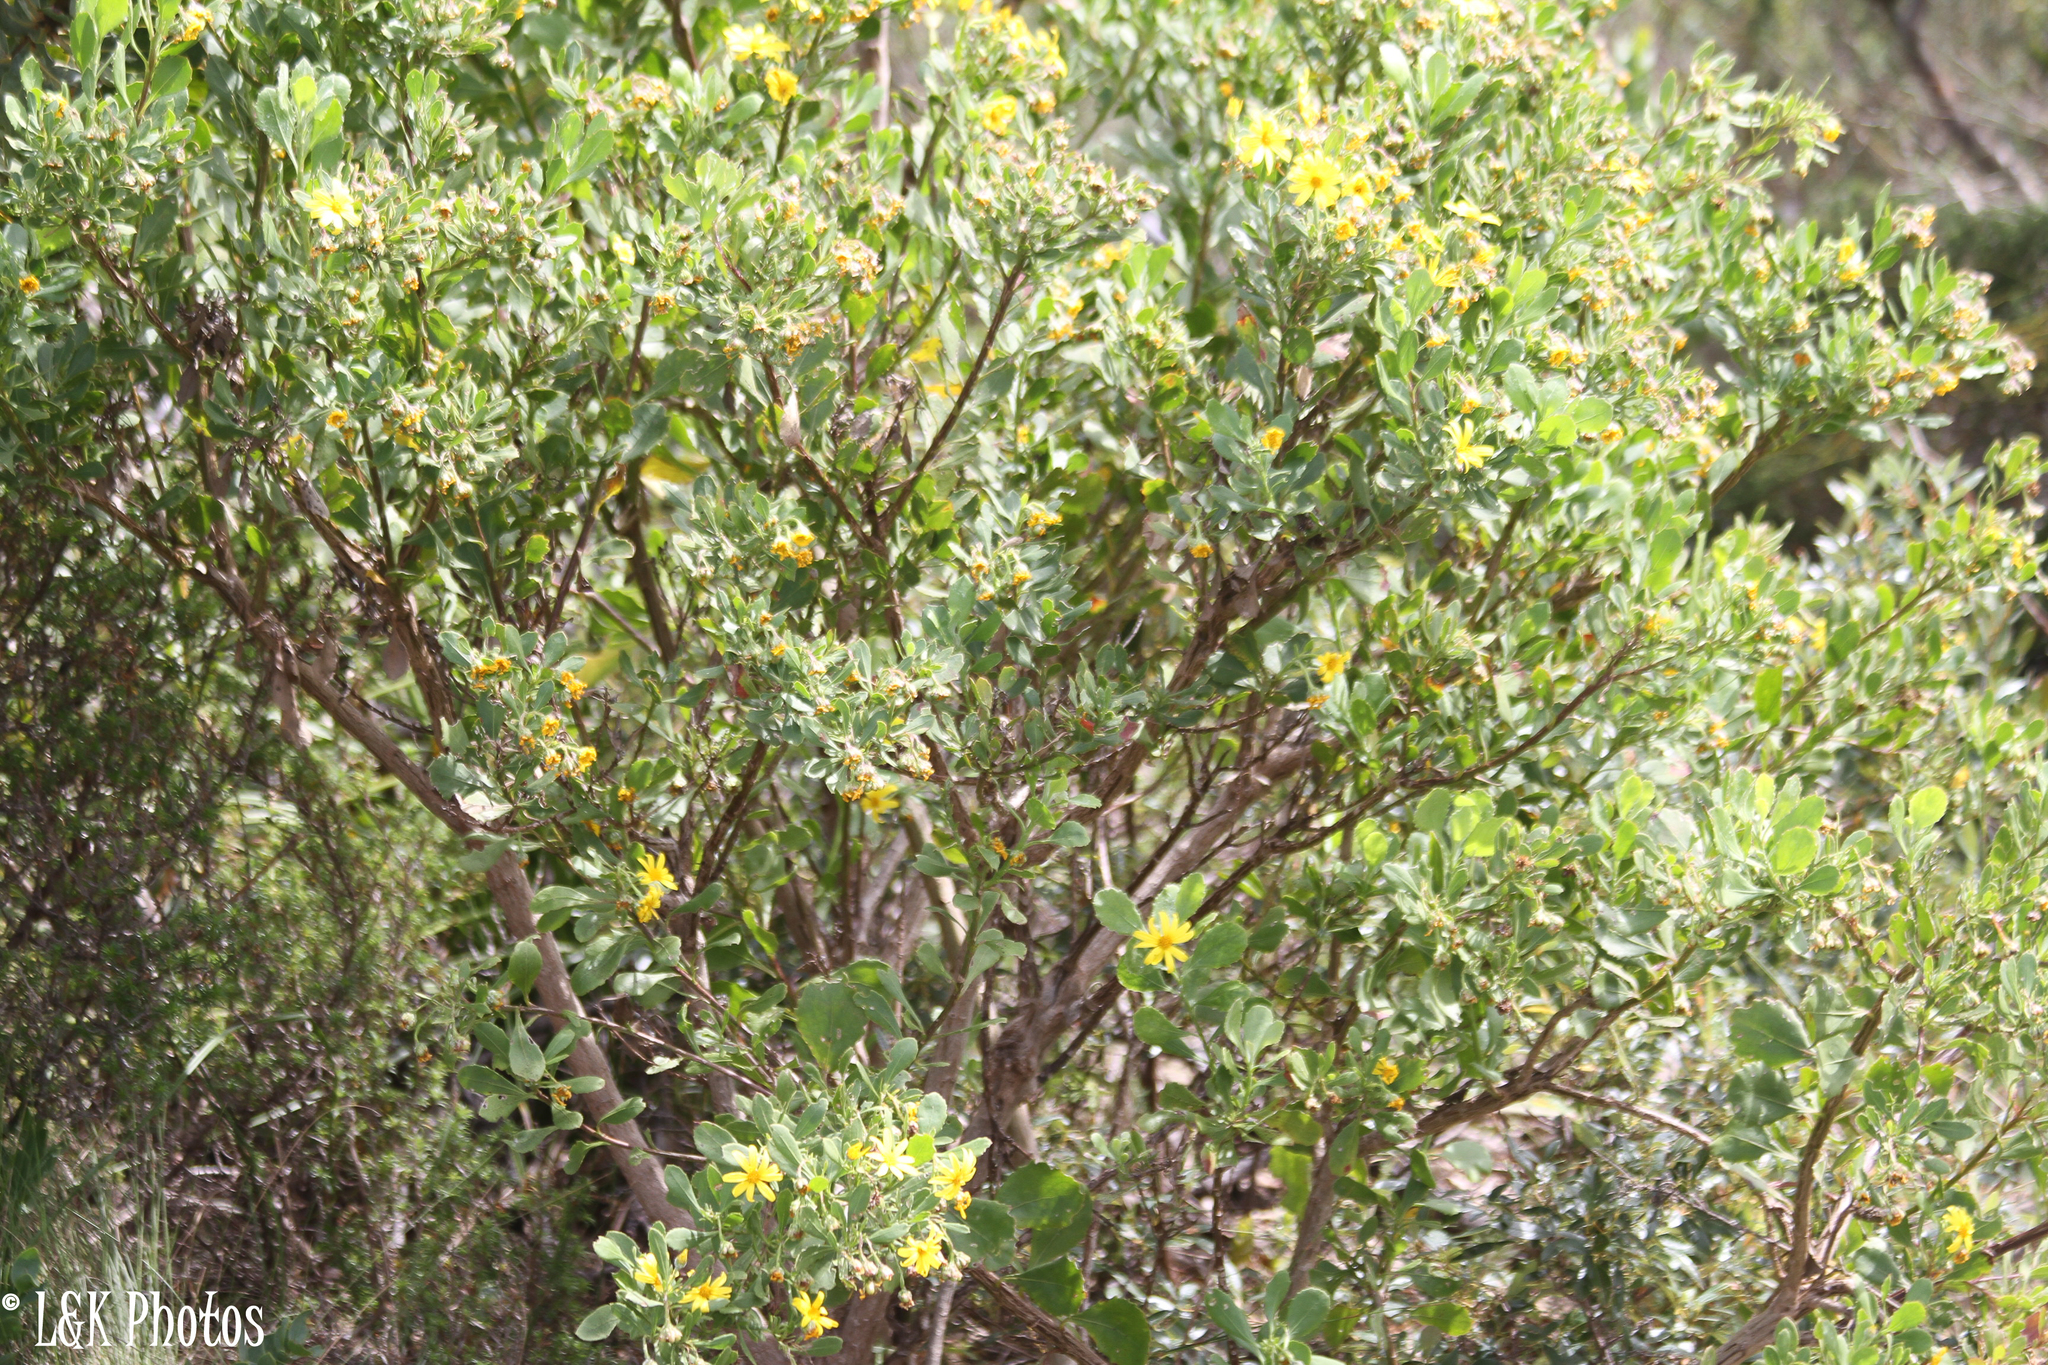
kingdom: Plantae
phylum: Tracheophyta
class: Magnoliopsida
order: Asterales
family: Asteraceae
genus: Osteospermum
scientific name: Osteospermum moniliferum
